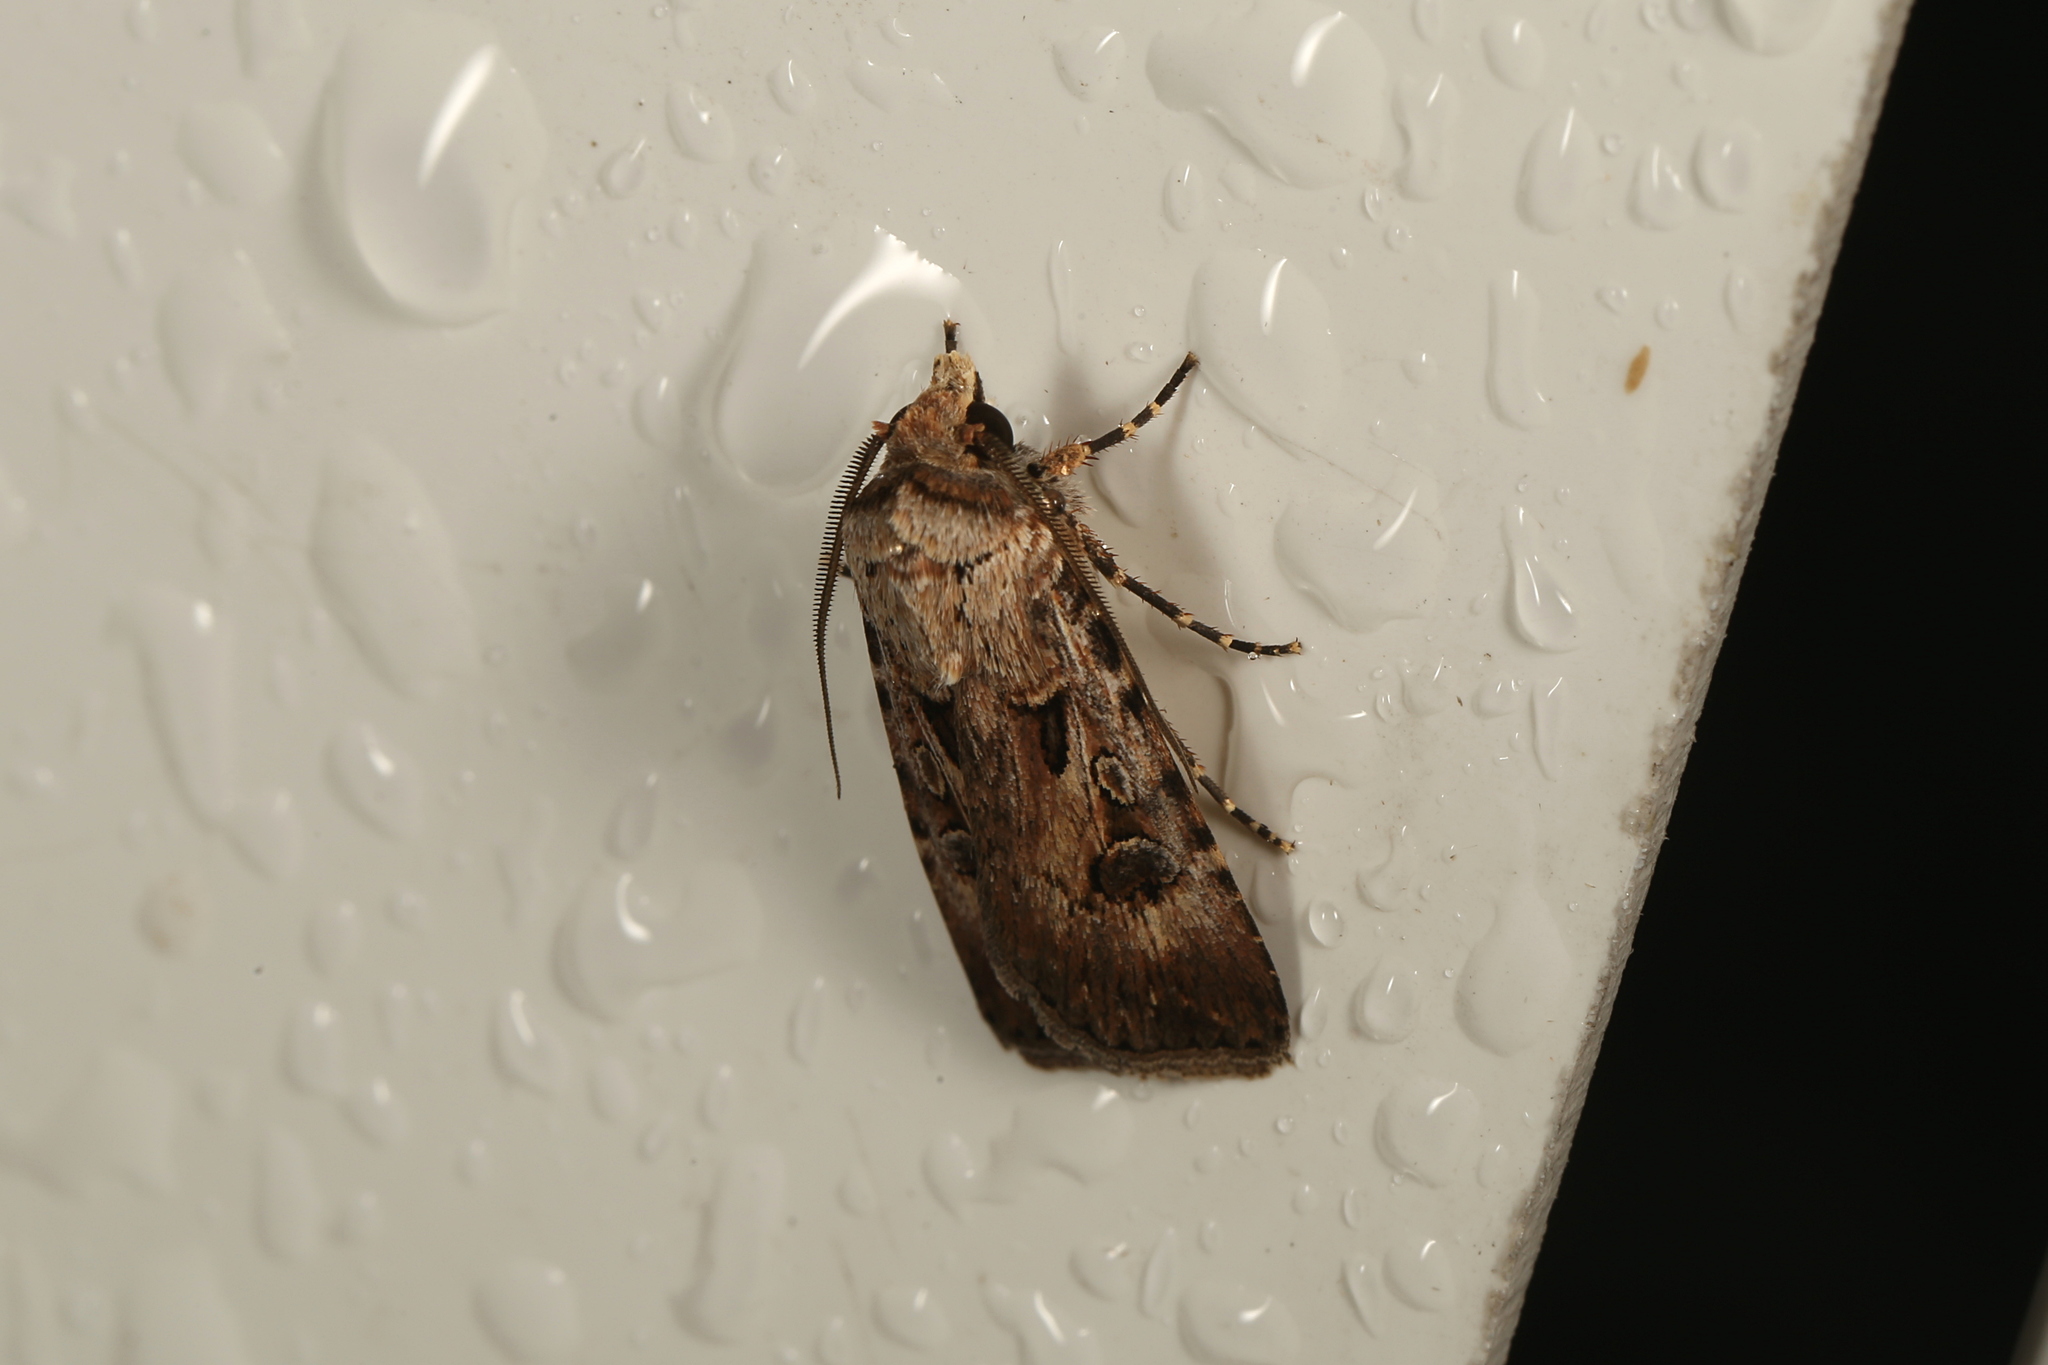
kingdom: Animalia
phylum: Arthropoda
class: Insecta
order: Lepidoptera
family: Noctuidae
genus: Agrotis
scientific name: Agrotis munda
